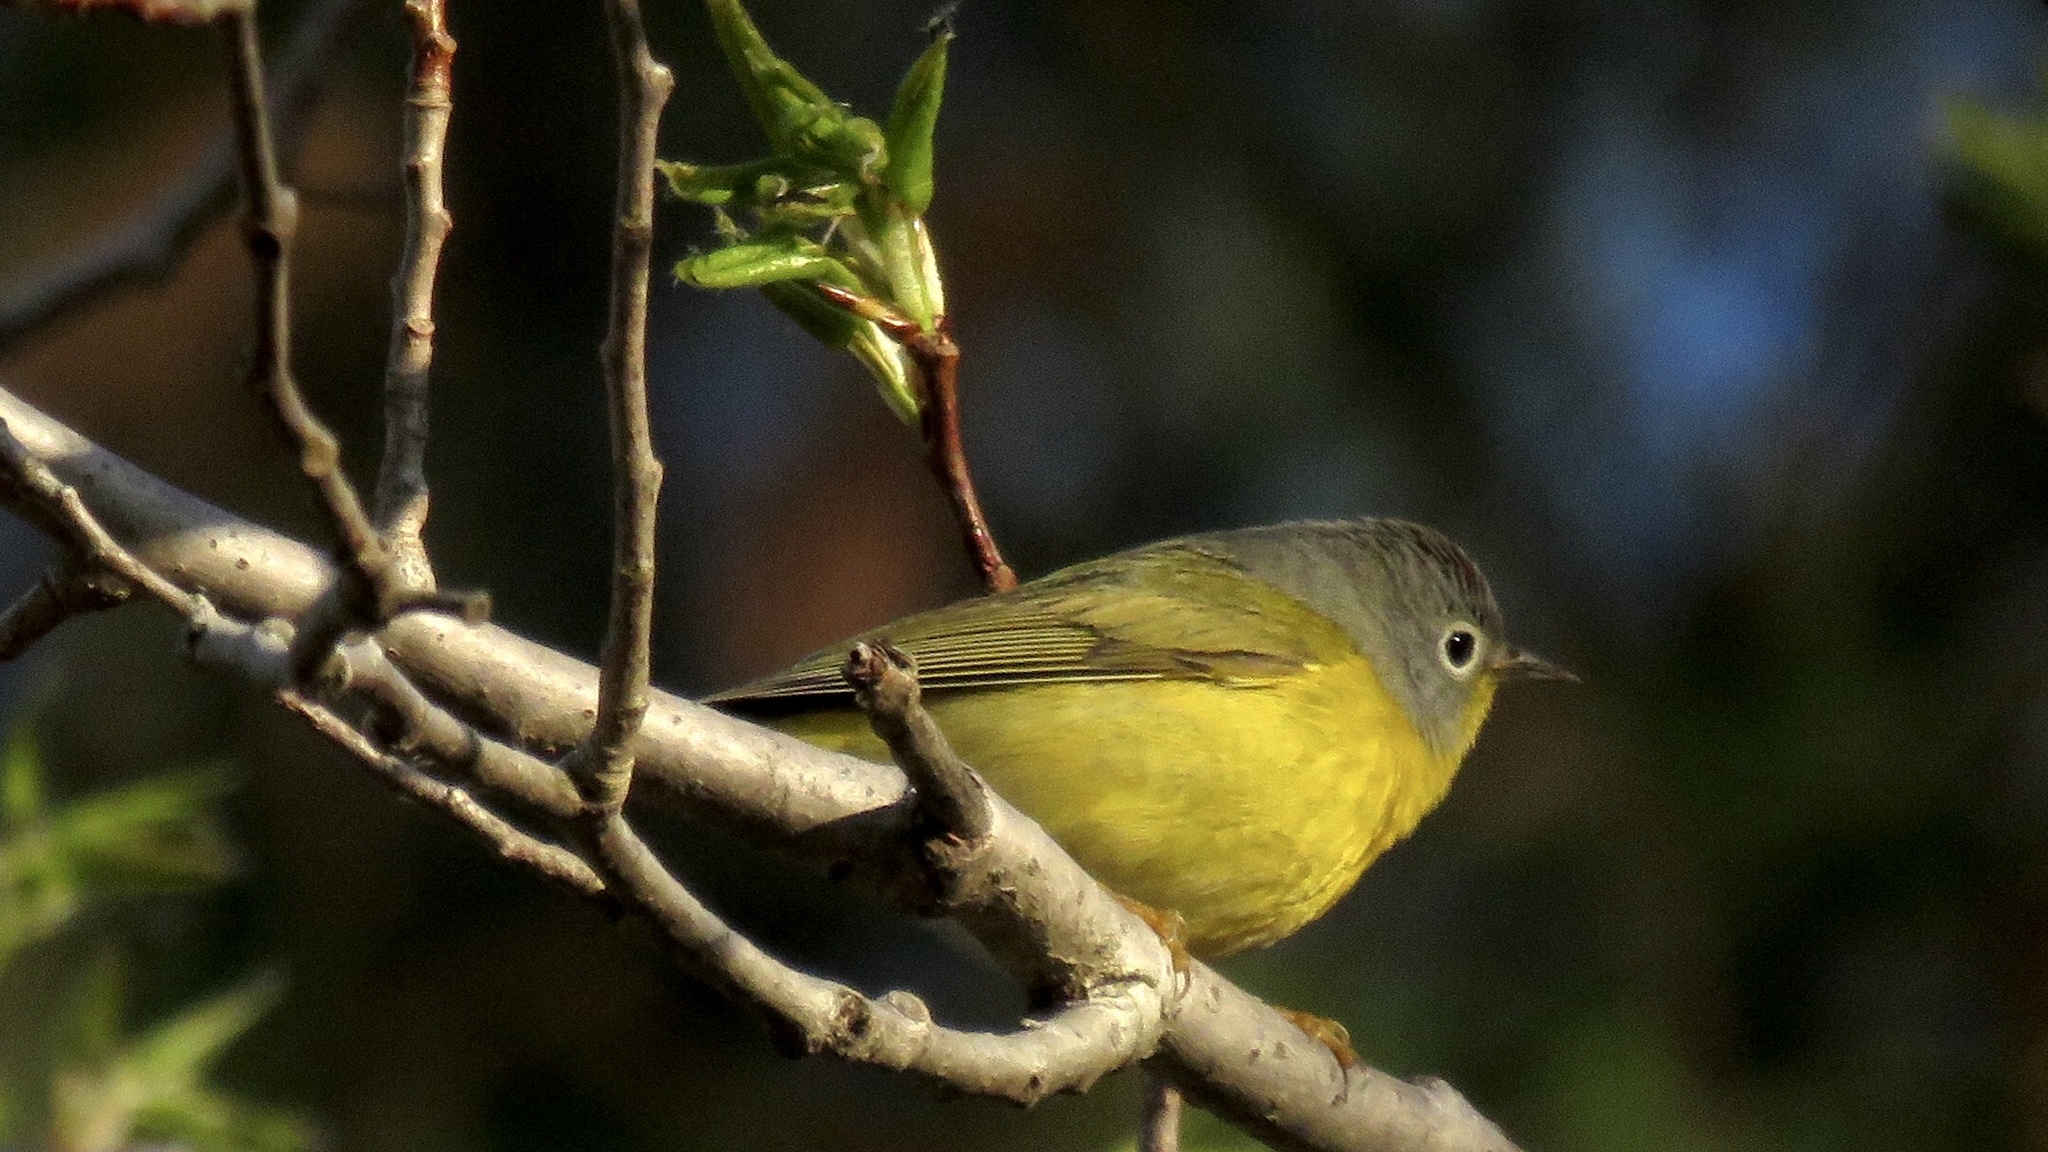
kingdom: Animalia
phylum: Chordata
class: Aves
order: Passeriformes
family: Parulidae
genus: Leiothlypis
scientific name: Leiothlypis ruficapilla
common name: Nashville warbler
